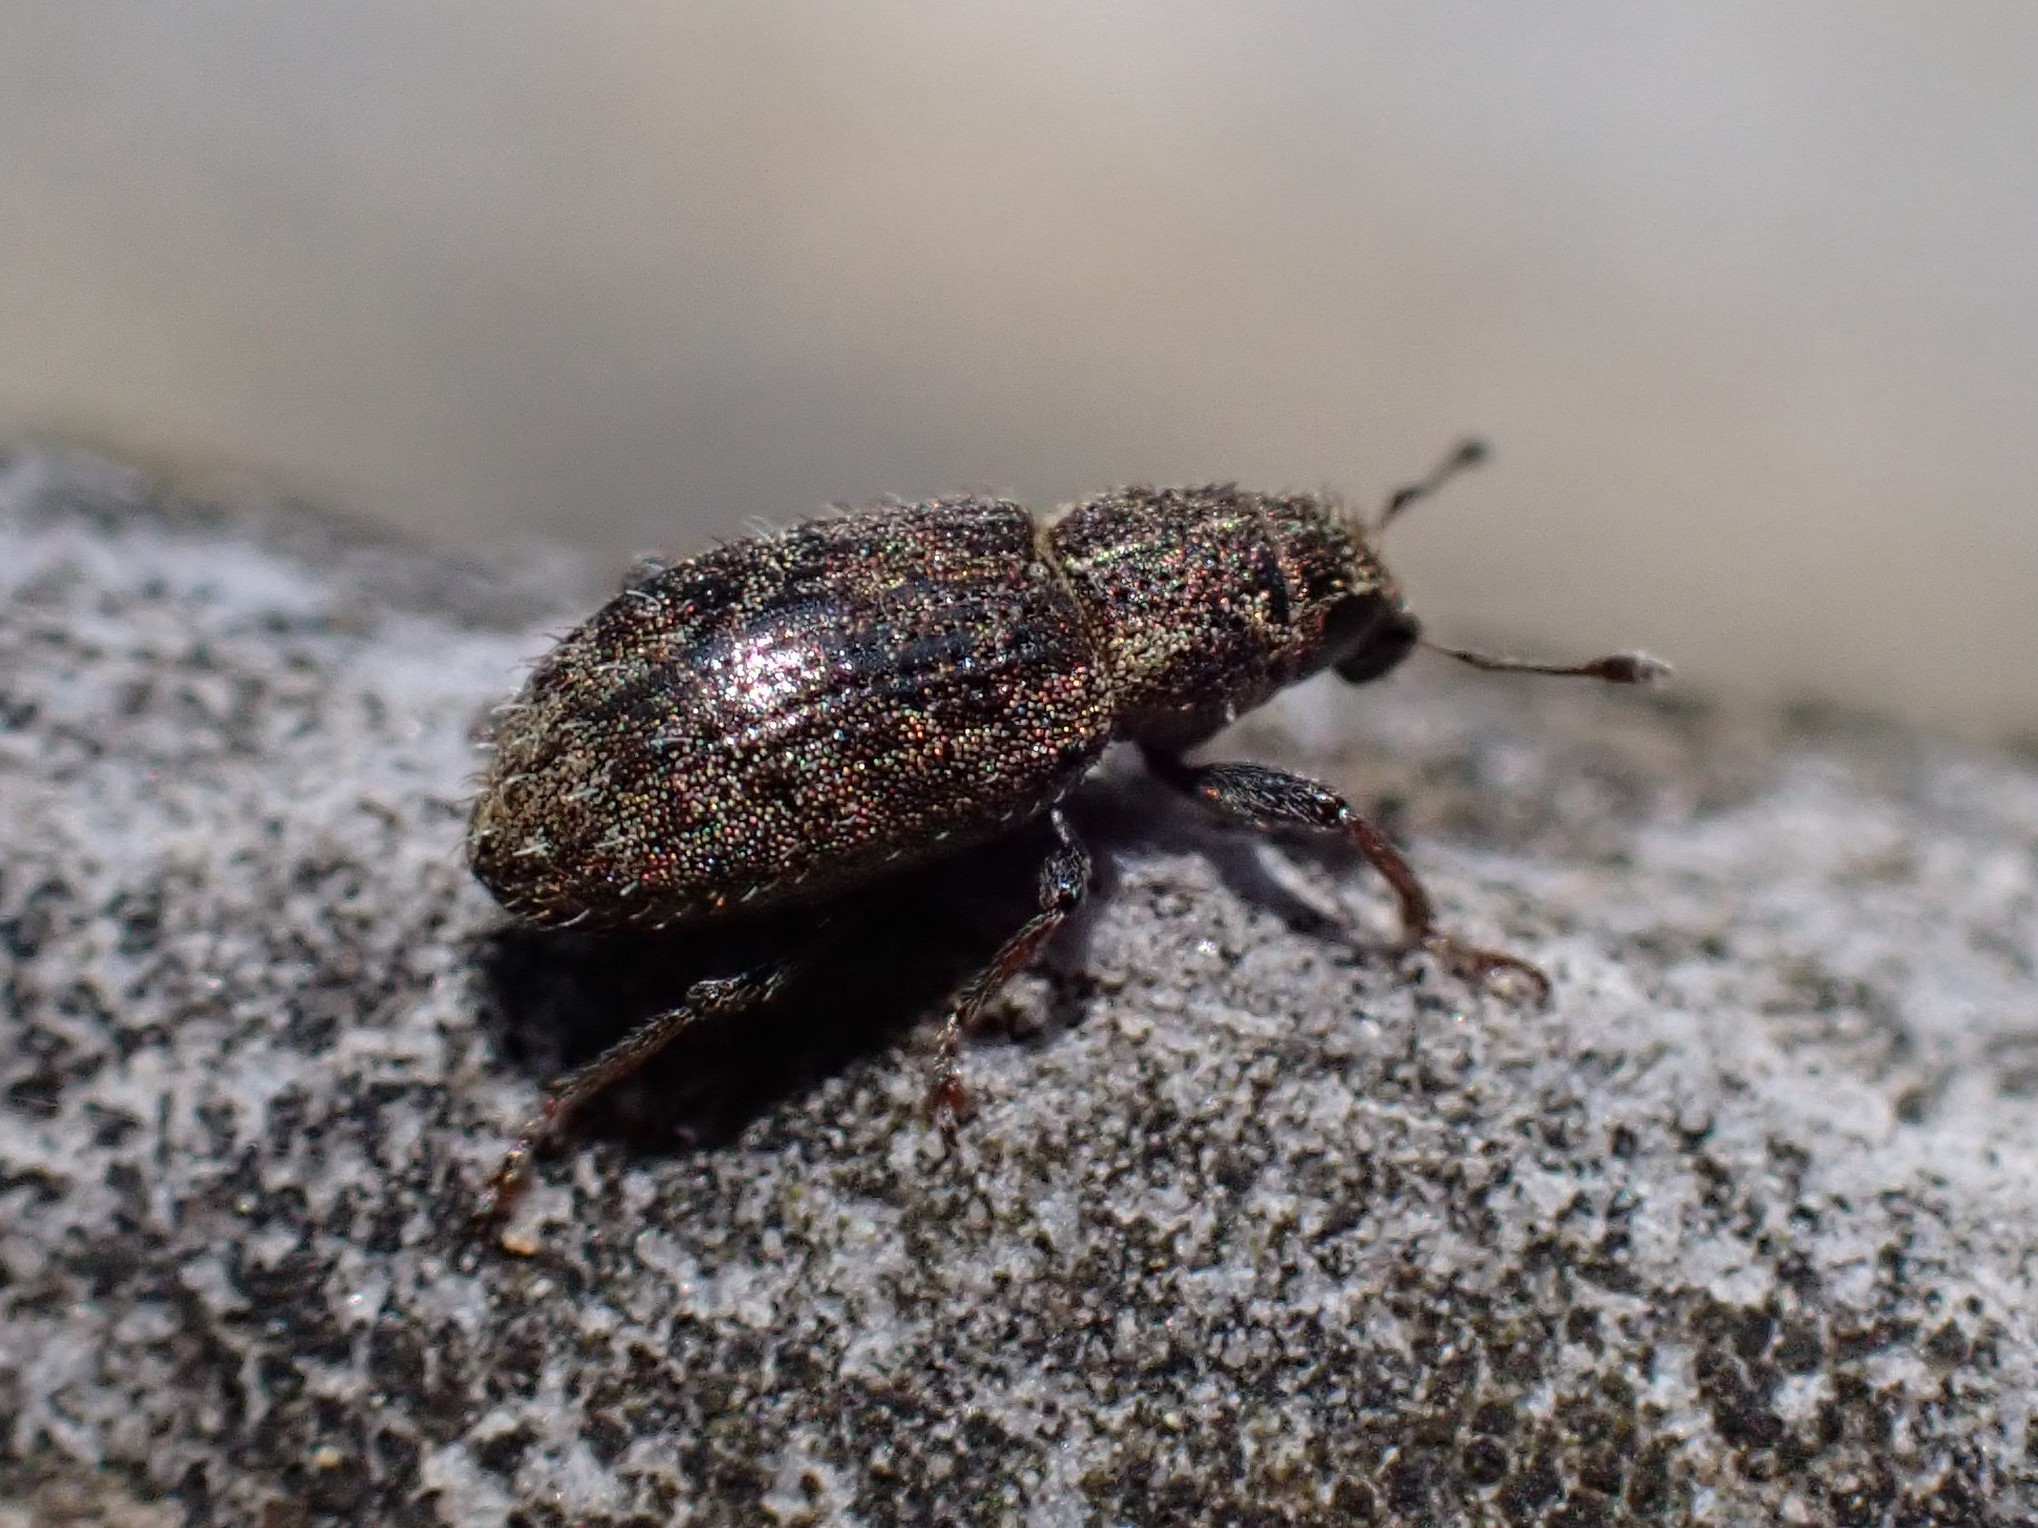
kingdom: Animalia
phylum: Arthropoda
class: Insecta
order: Coleoptera
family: Curculionidae
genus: Sitona
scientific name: Sitona hispidulus
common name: Clover weevil
